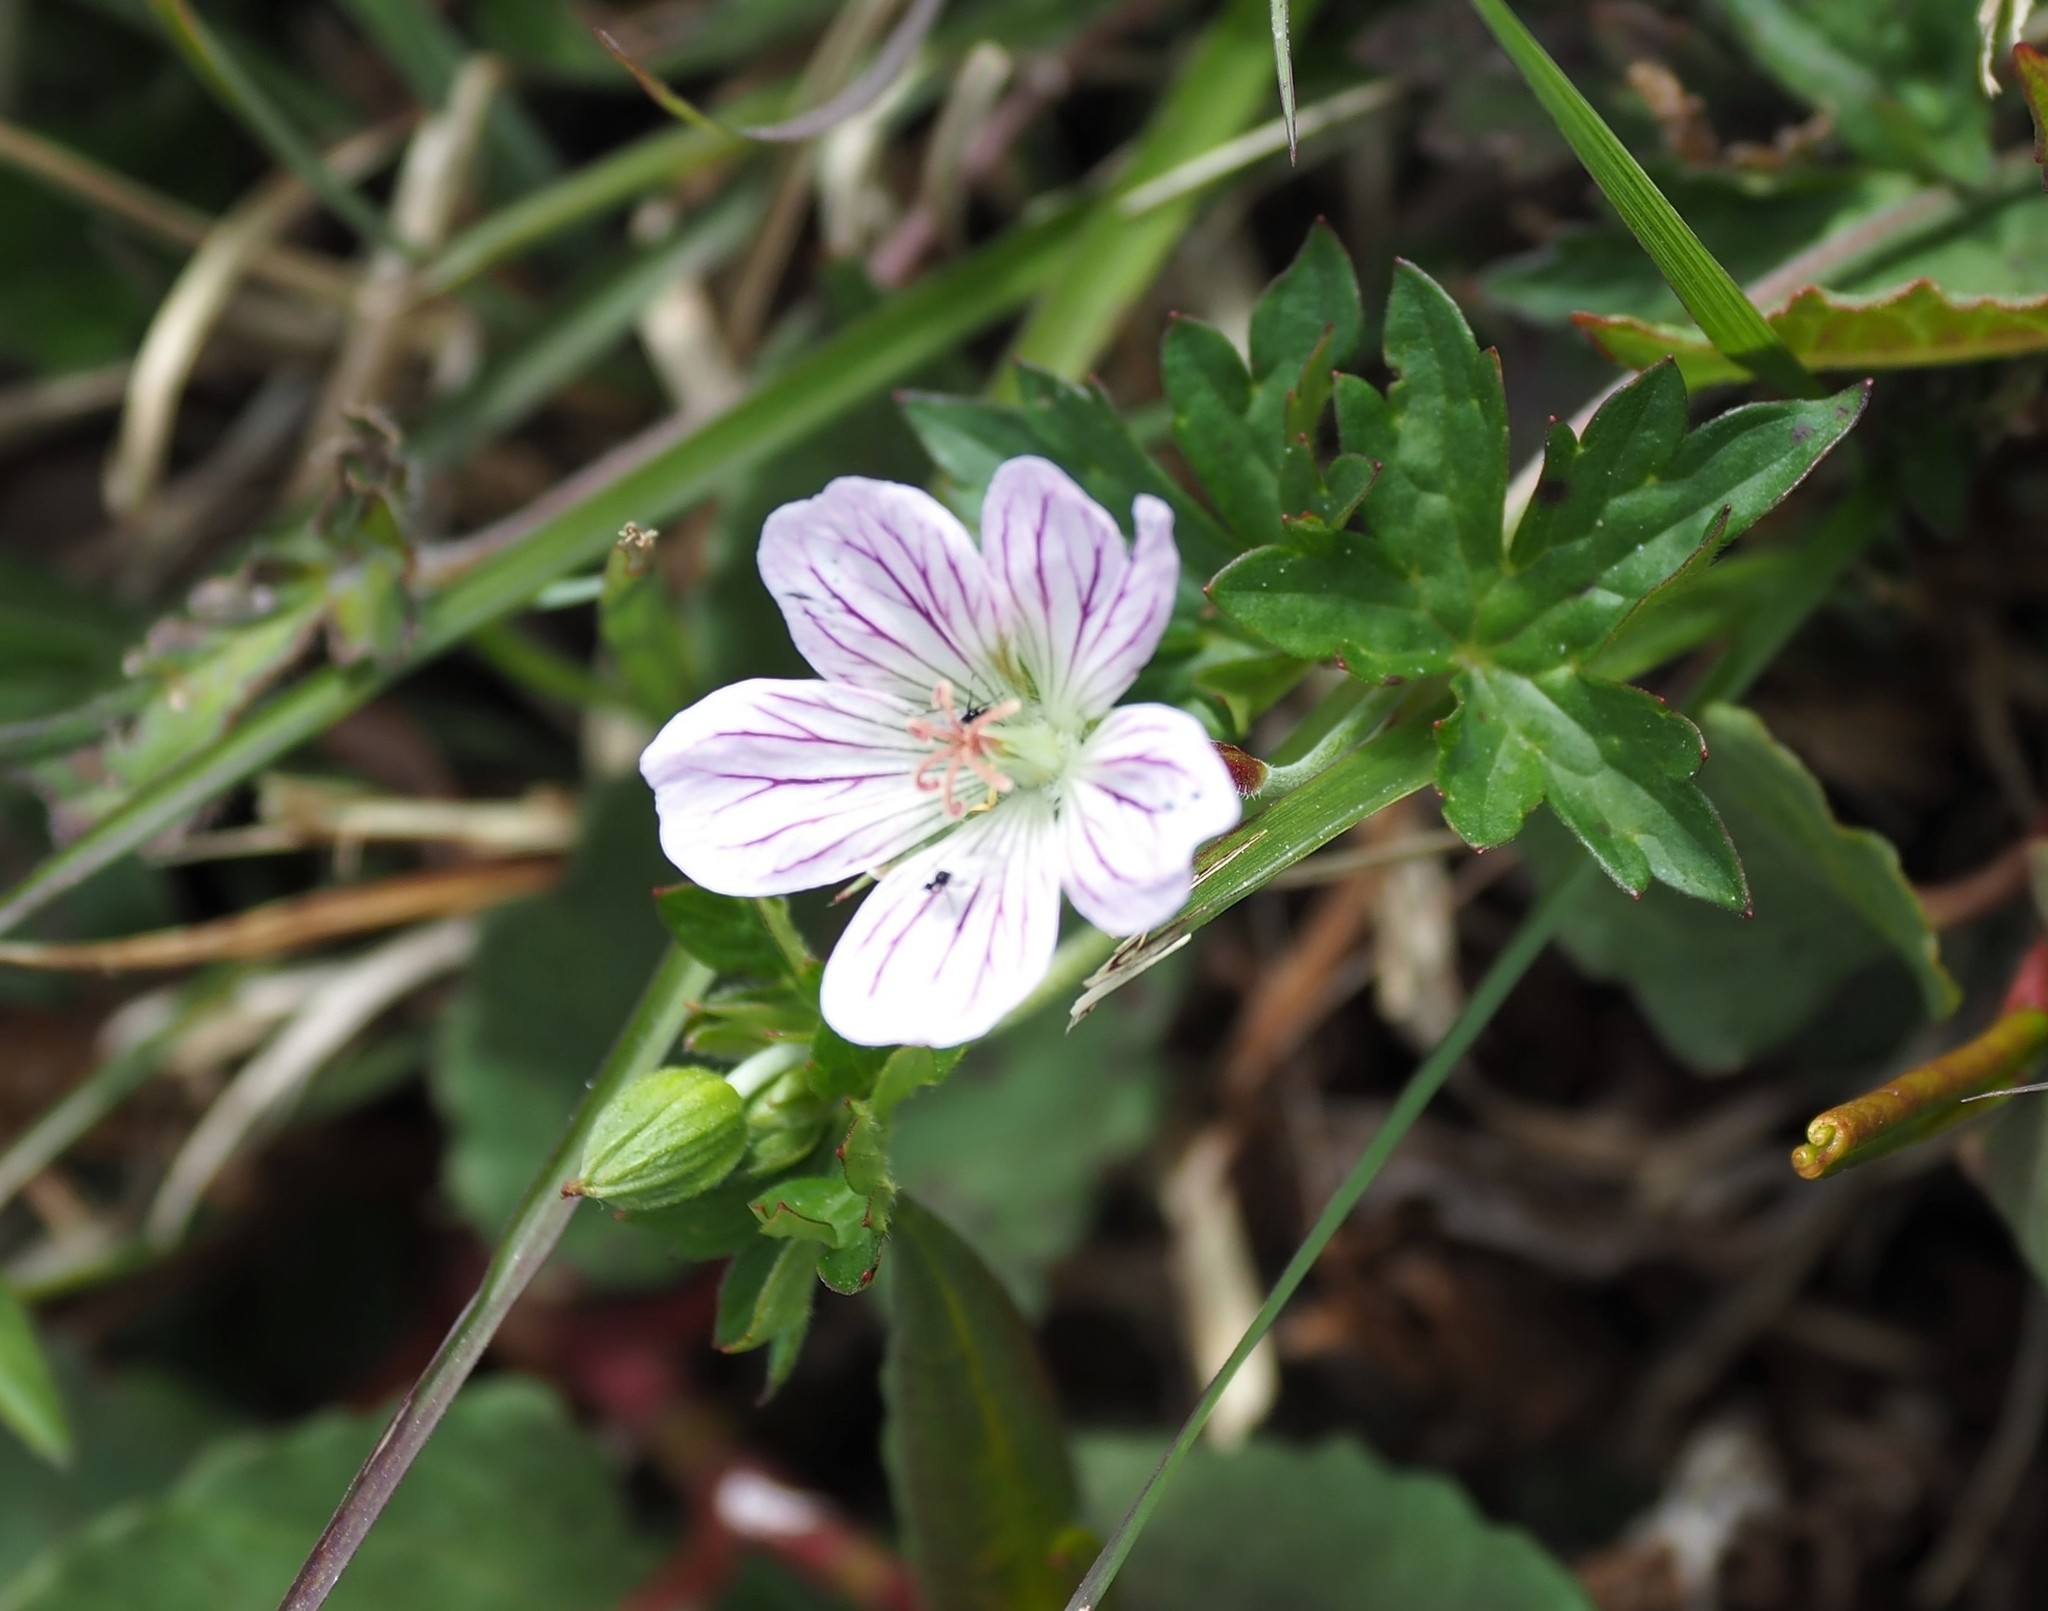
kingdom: Plantae
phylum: Tracheophyta
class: Magnoliopsida
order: Geraniales
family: Geraniaceae
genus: Geranium
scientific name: Geranium hayatanum
